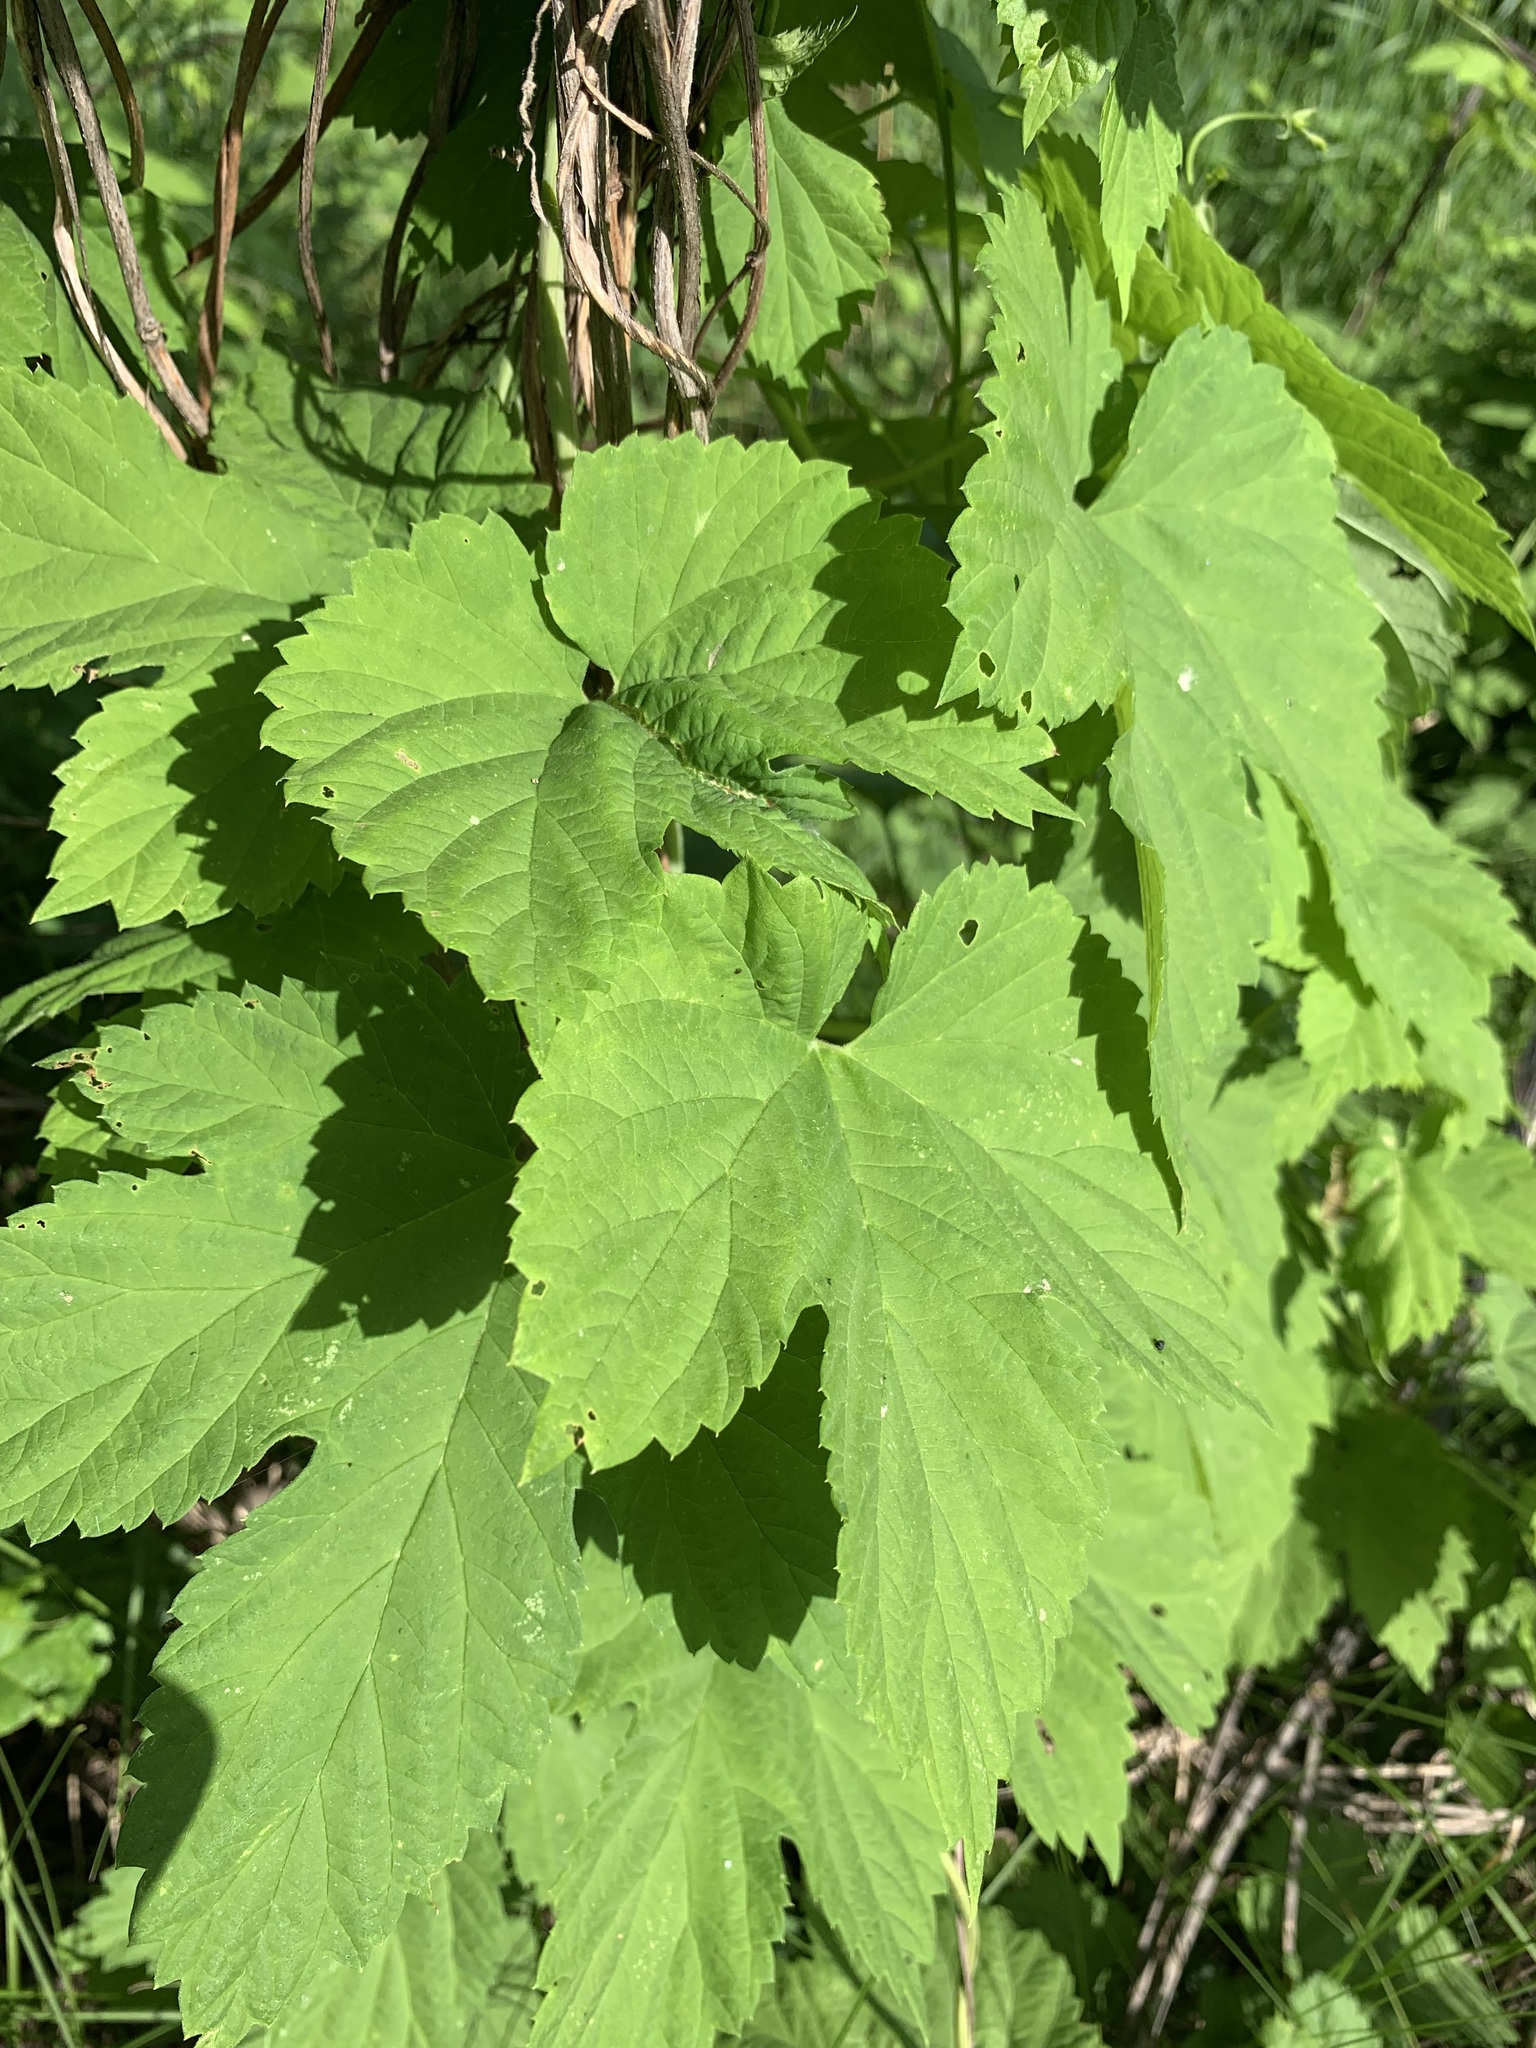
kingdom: Plantae
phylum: Tracheophyta
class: Magnoliopsida
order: Rosales
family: Cannabaceae
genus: Humulus
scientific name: Humulus lupulus
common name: Hop
